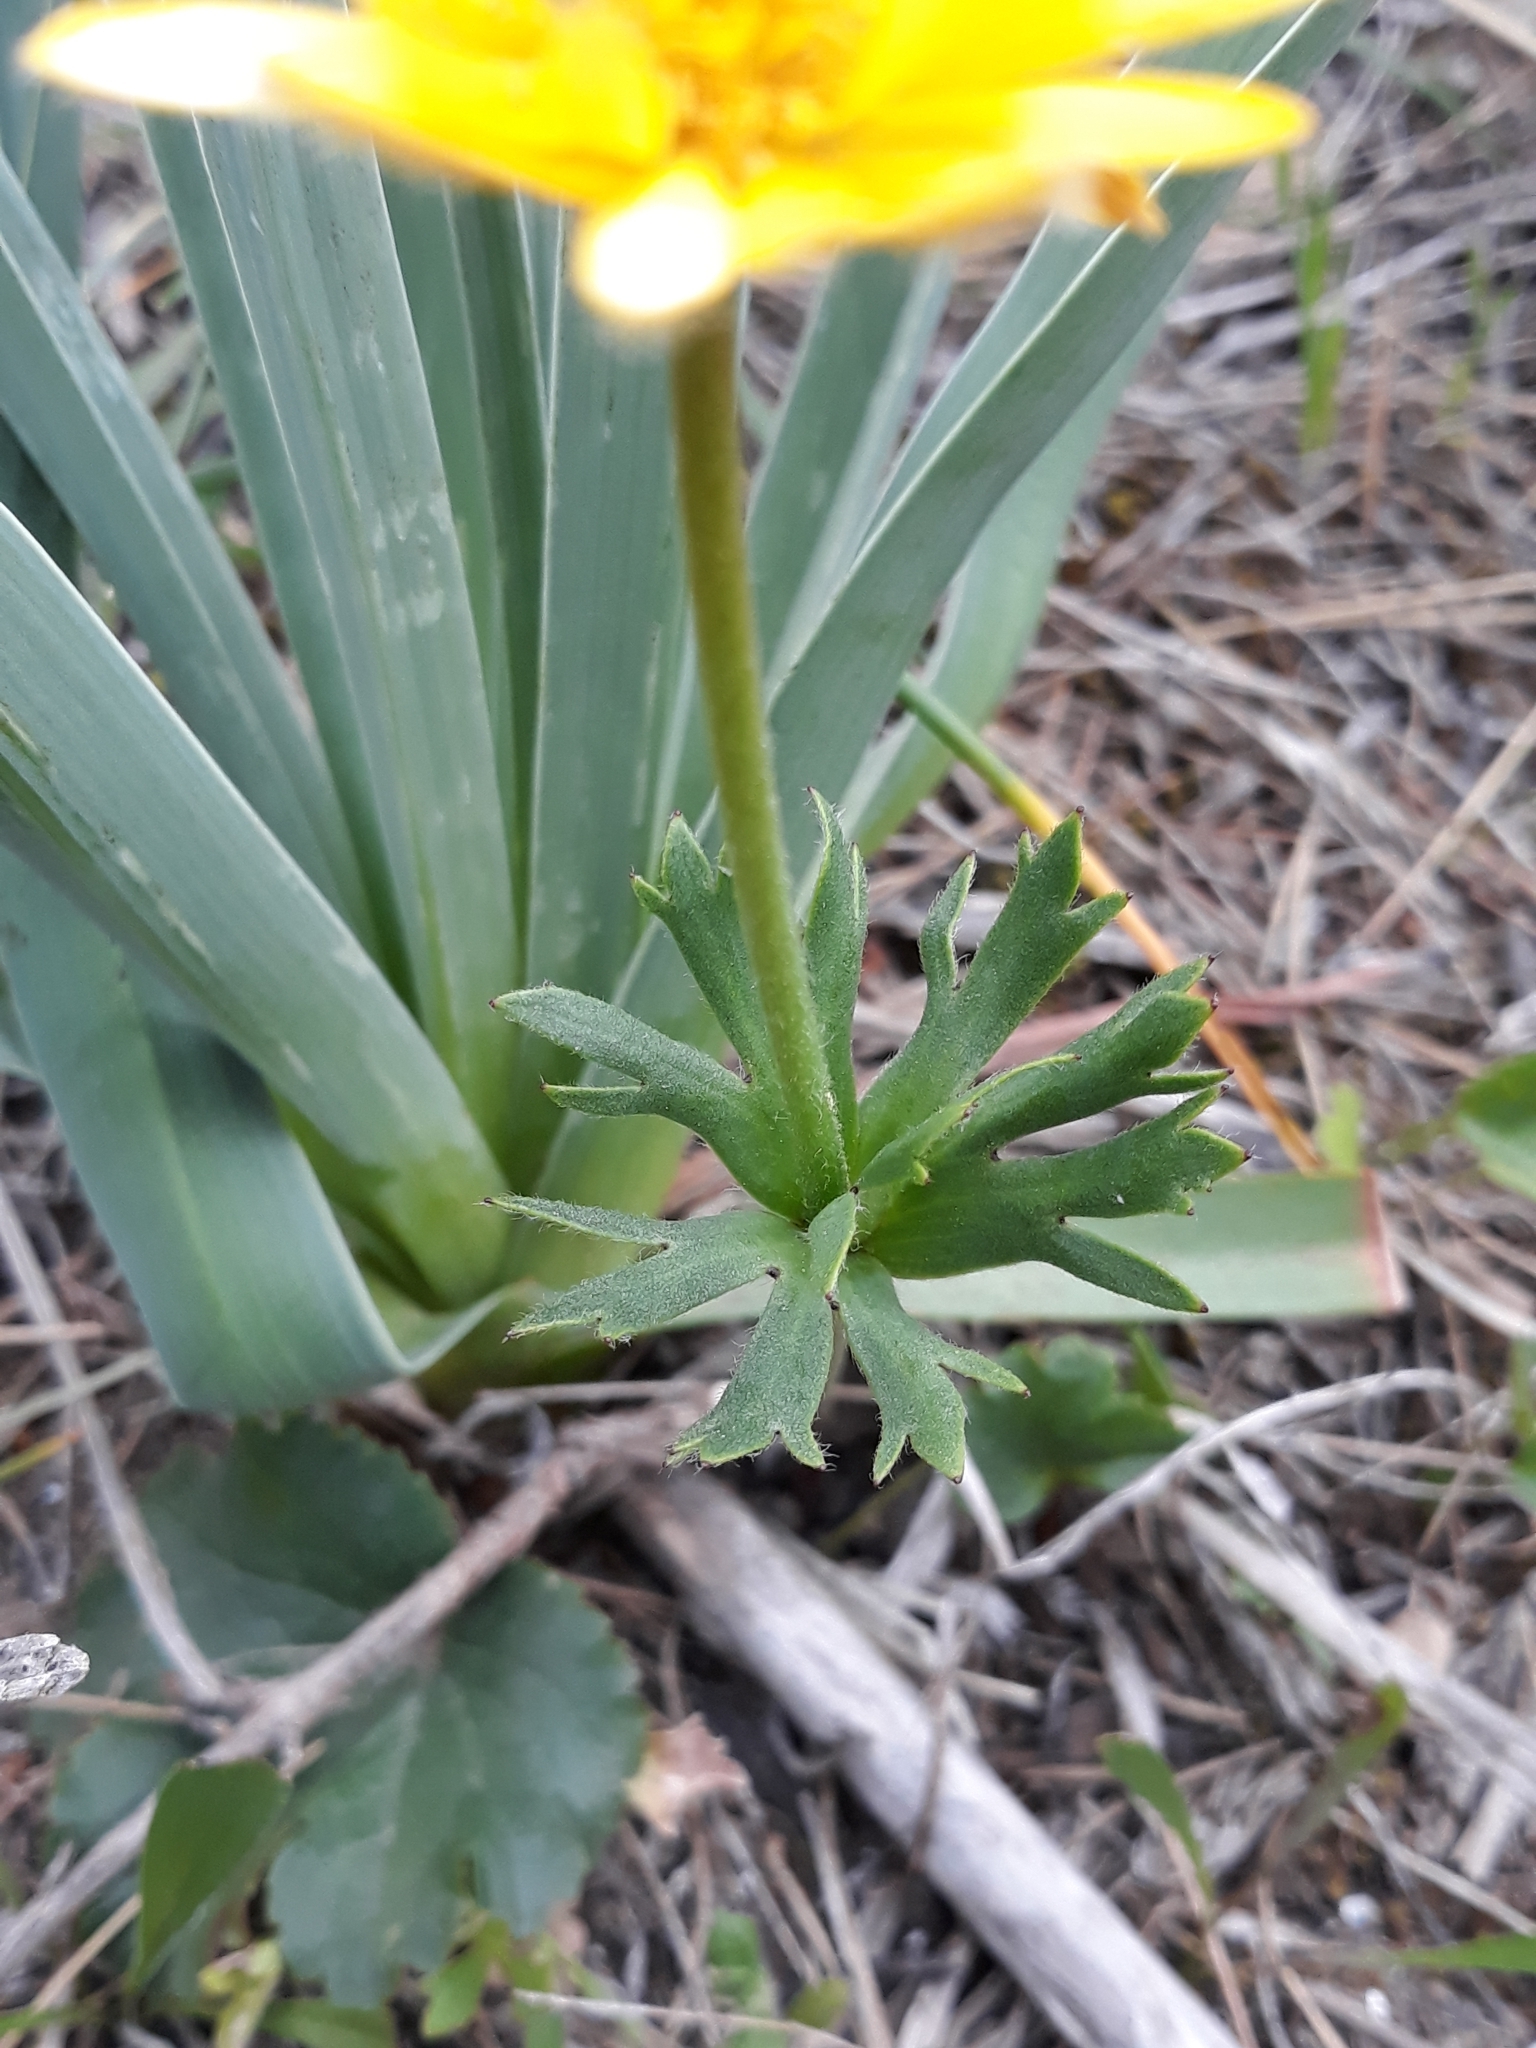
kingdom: Plantae
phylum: Tracheophyta
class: Magnoliopsida
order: Ranunculales
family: Ranunculaceae
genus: Anemone
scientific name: Anemone palmata
